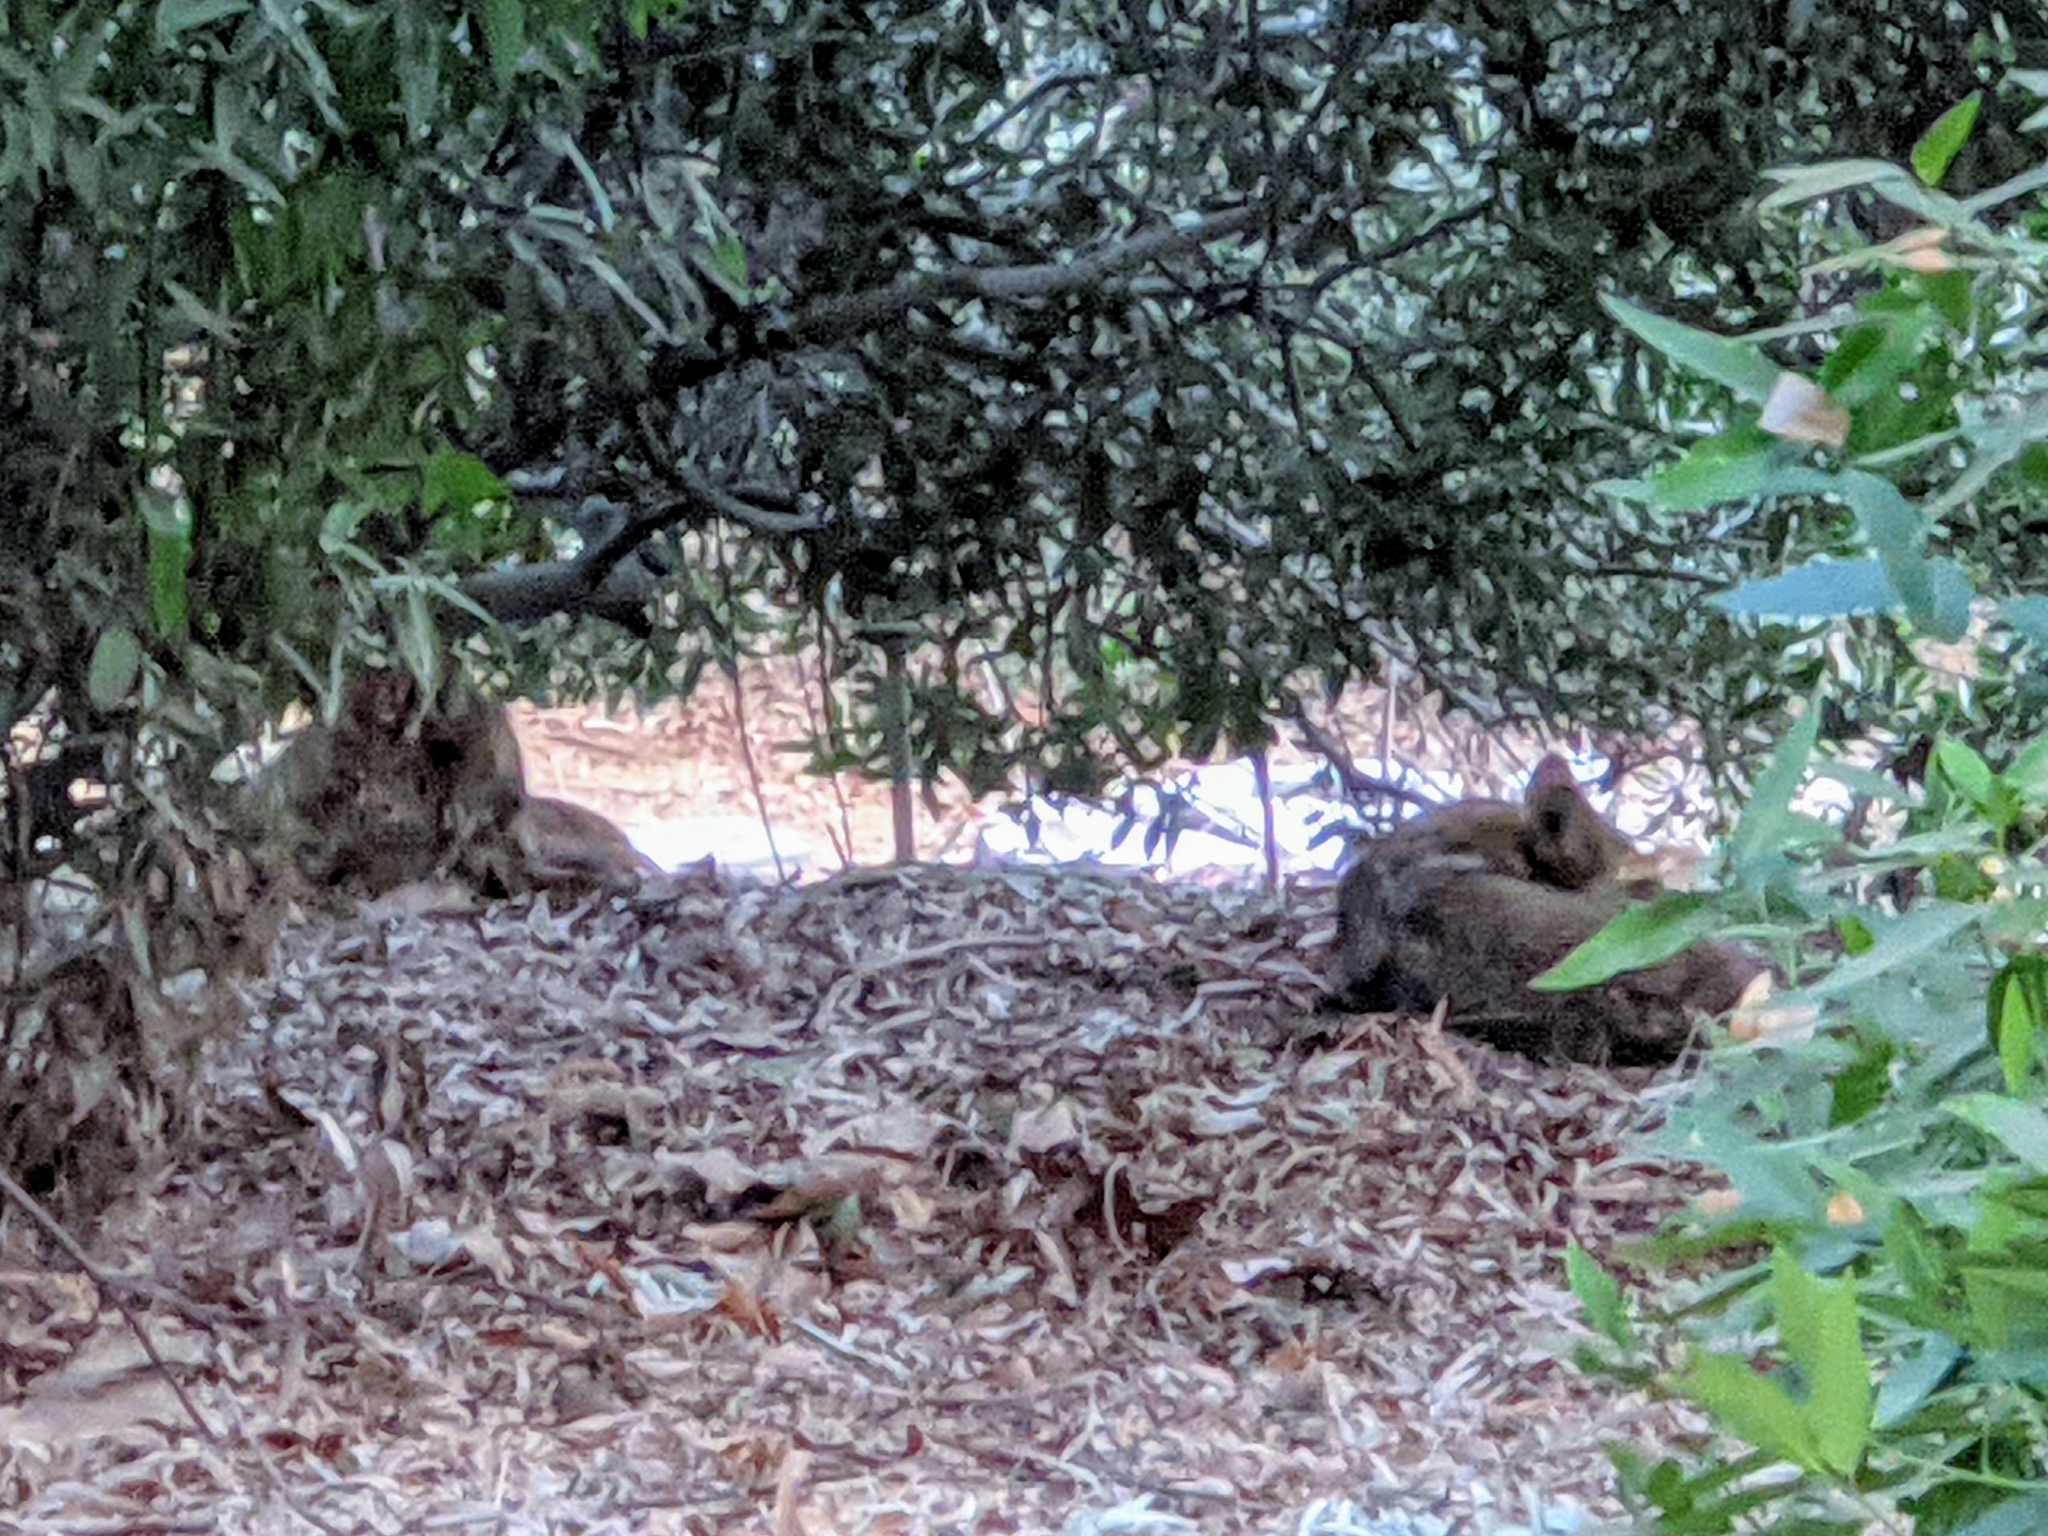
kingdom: Animalia
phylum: Chordata
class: Mammalia
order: Carnivora
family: Canidae
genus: Canis
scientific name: Canis latrans
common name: Coyote
